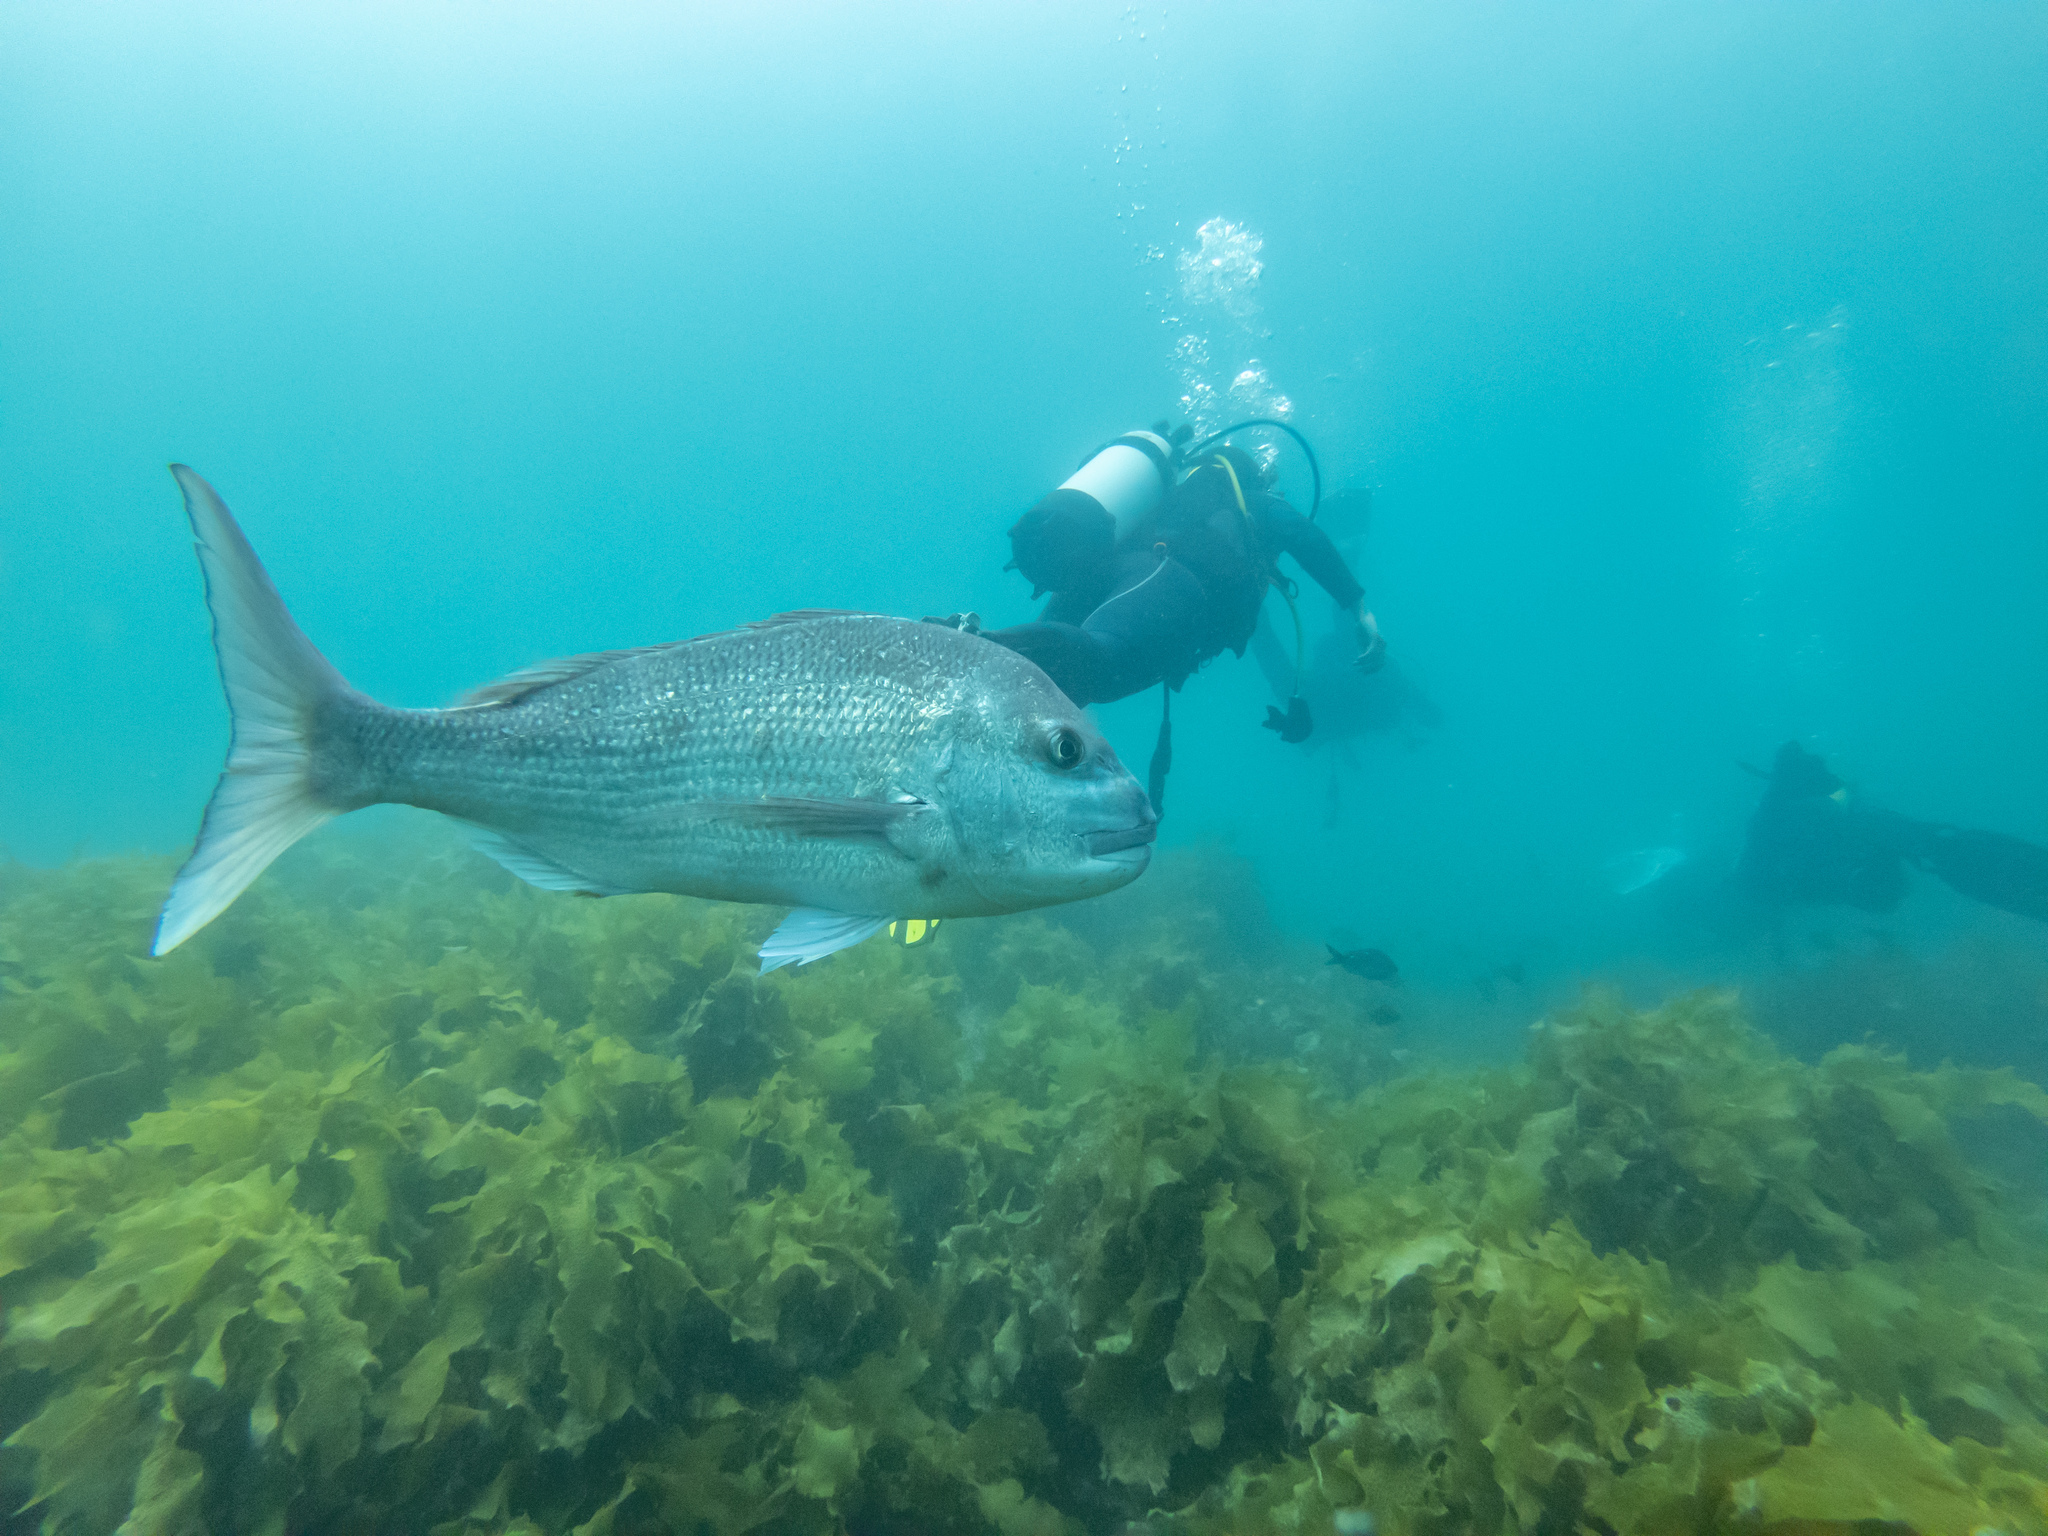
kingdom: Animalia
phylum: Chordata
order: Perciformes
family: Sparidae
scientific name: Sparidae
